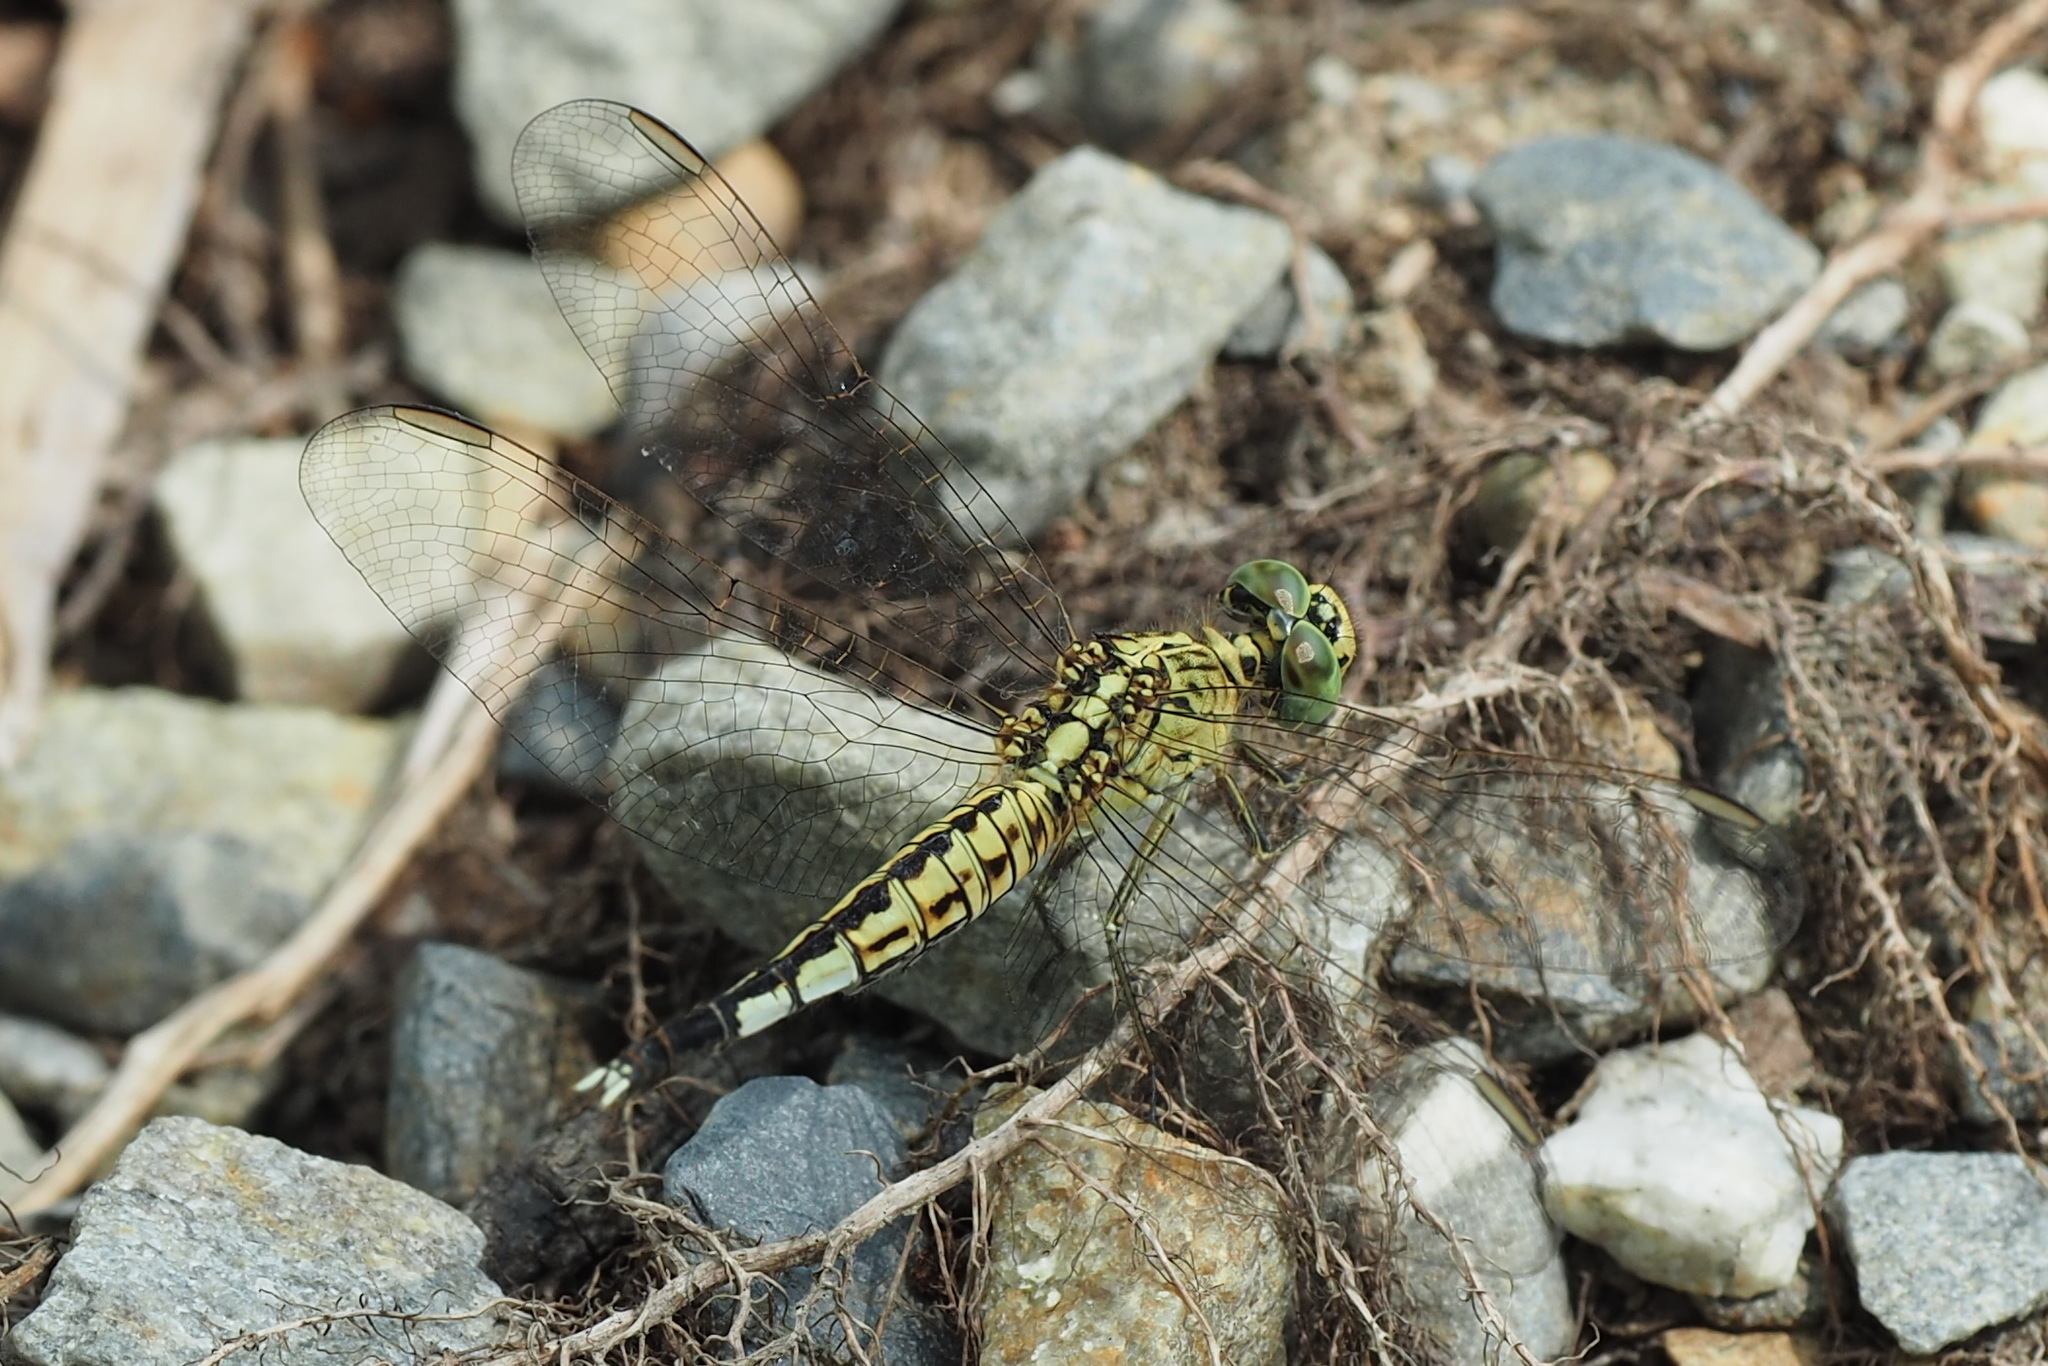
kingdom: Animalia
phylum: Arthropoda
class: Insecta
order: Odonata
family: Libellulidae
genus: Acisoma
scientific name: Acisoma panorpoides
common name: Asian pintail
